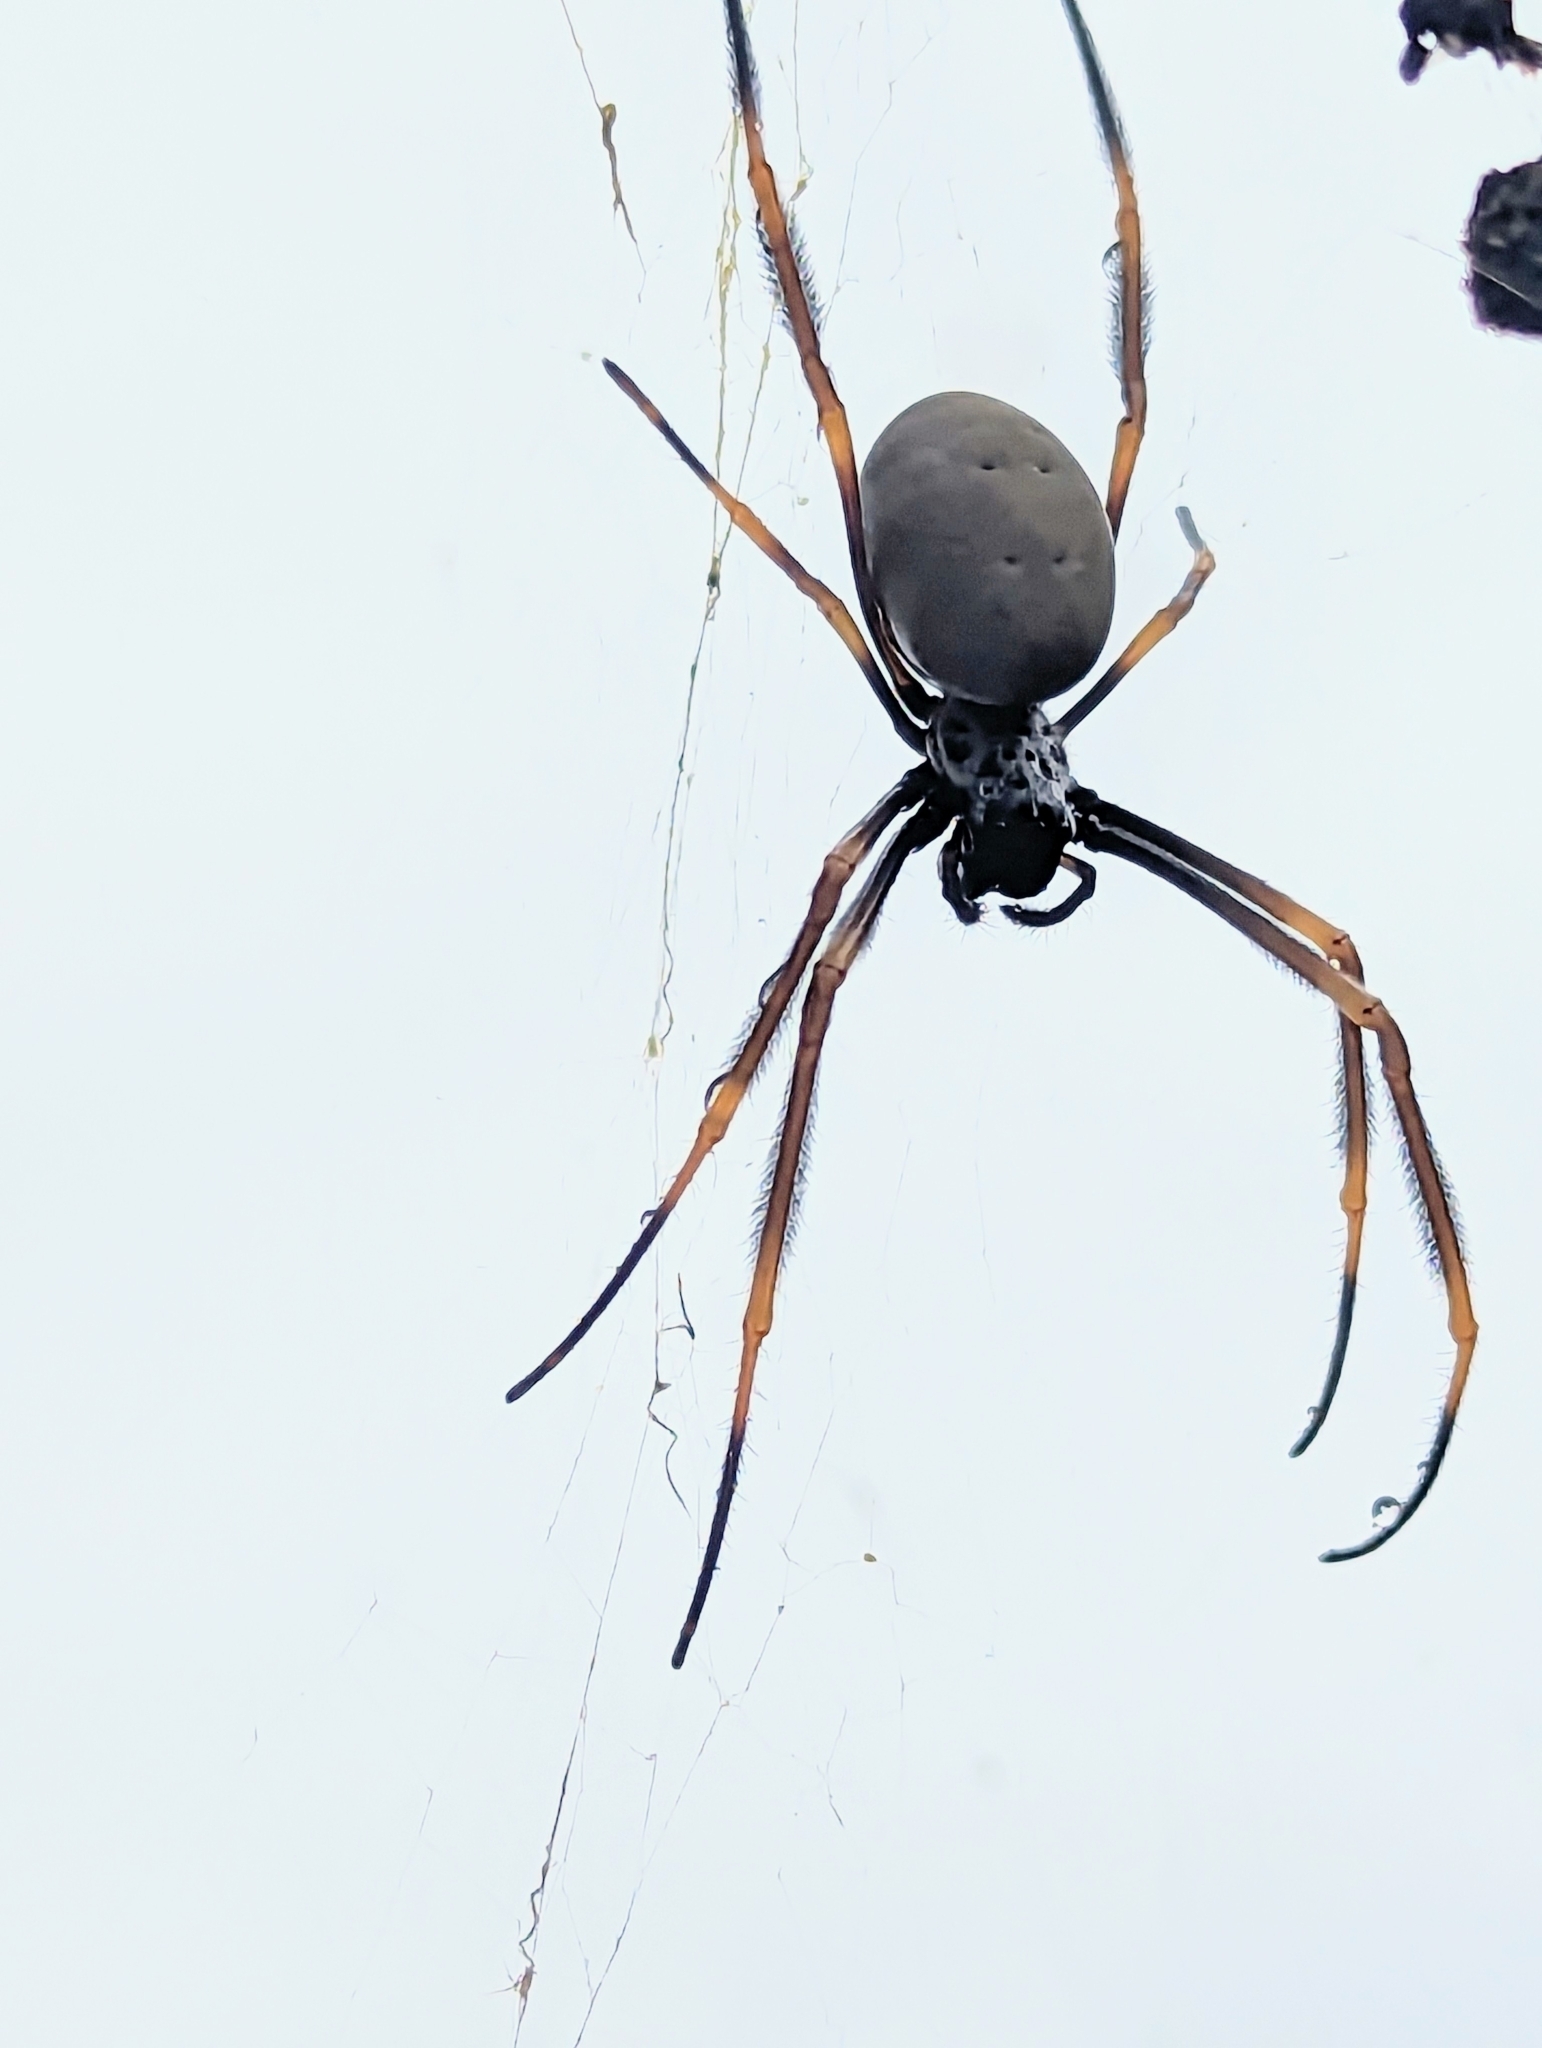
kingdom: Animalia
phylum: Arthropoda
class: Arachnida
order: Araneae
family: Araneidae
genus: Trichonephila
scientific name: Trichonephila plumipes
